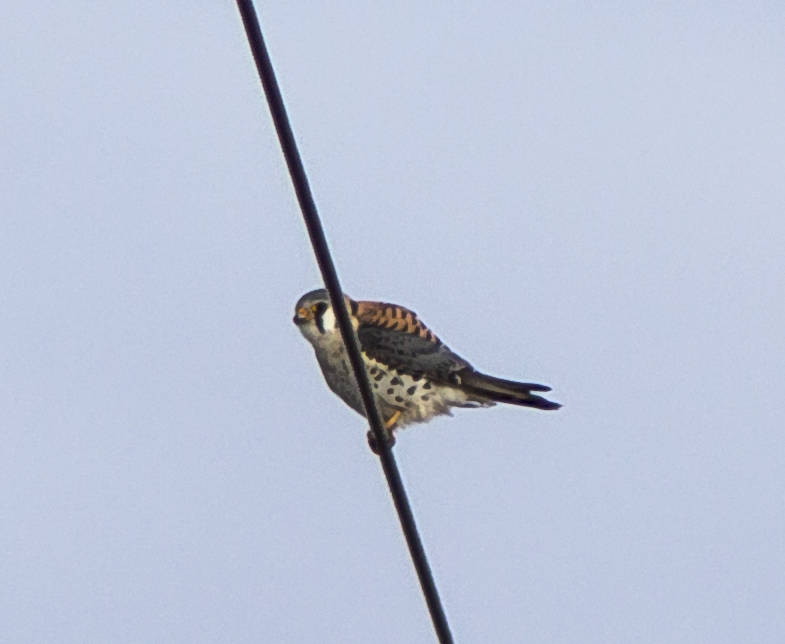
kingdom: Animalia
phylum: Chordata
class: Aves
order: Falconiformes
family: Falconidae
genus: Falco
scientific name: Falco sparverius
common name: American kestrel
